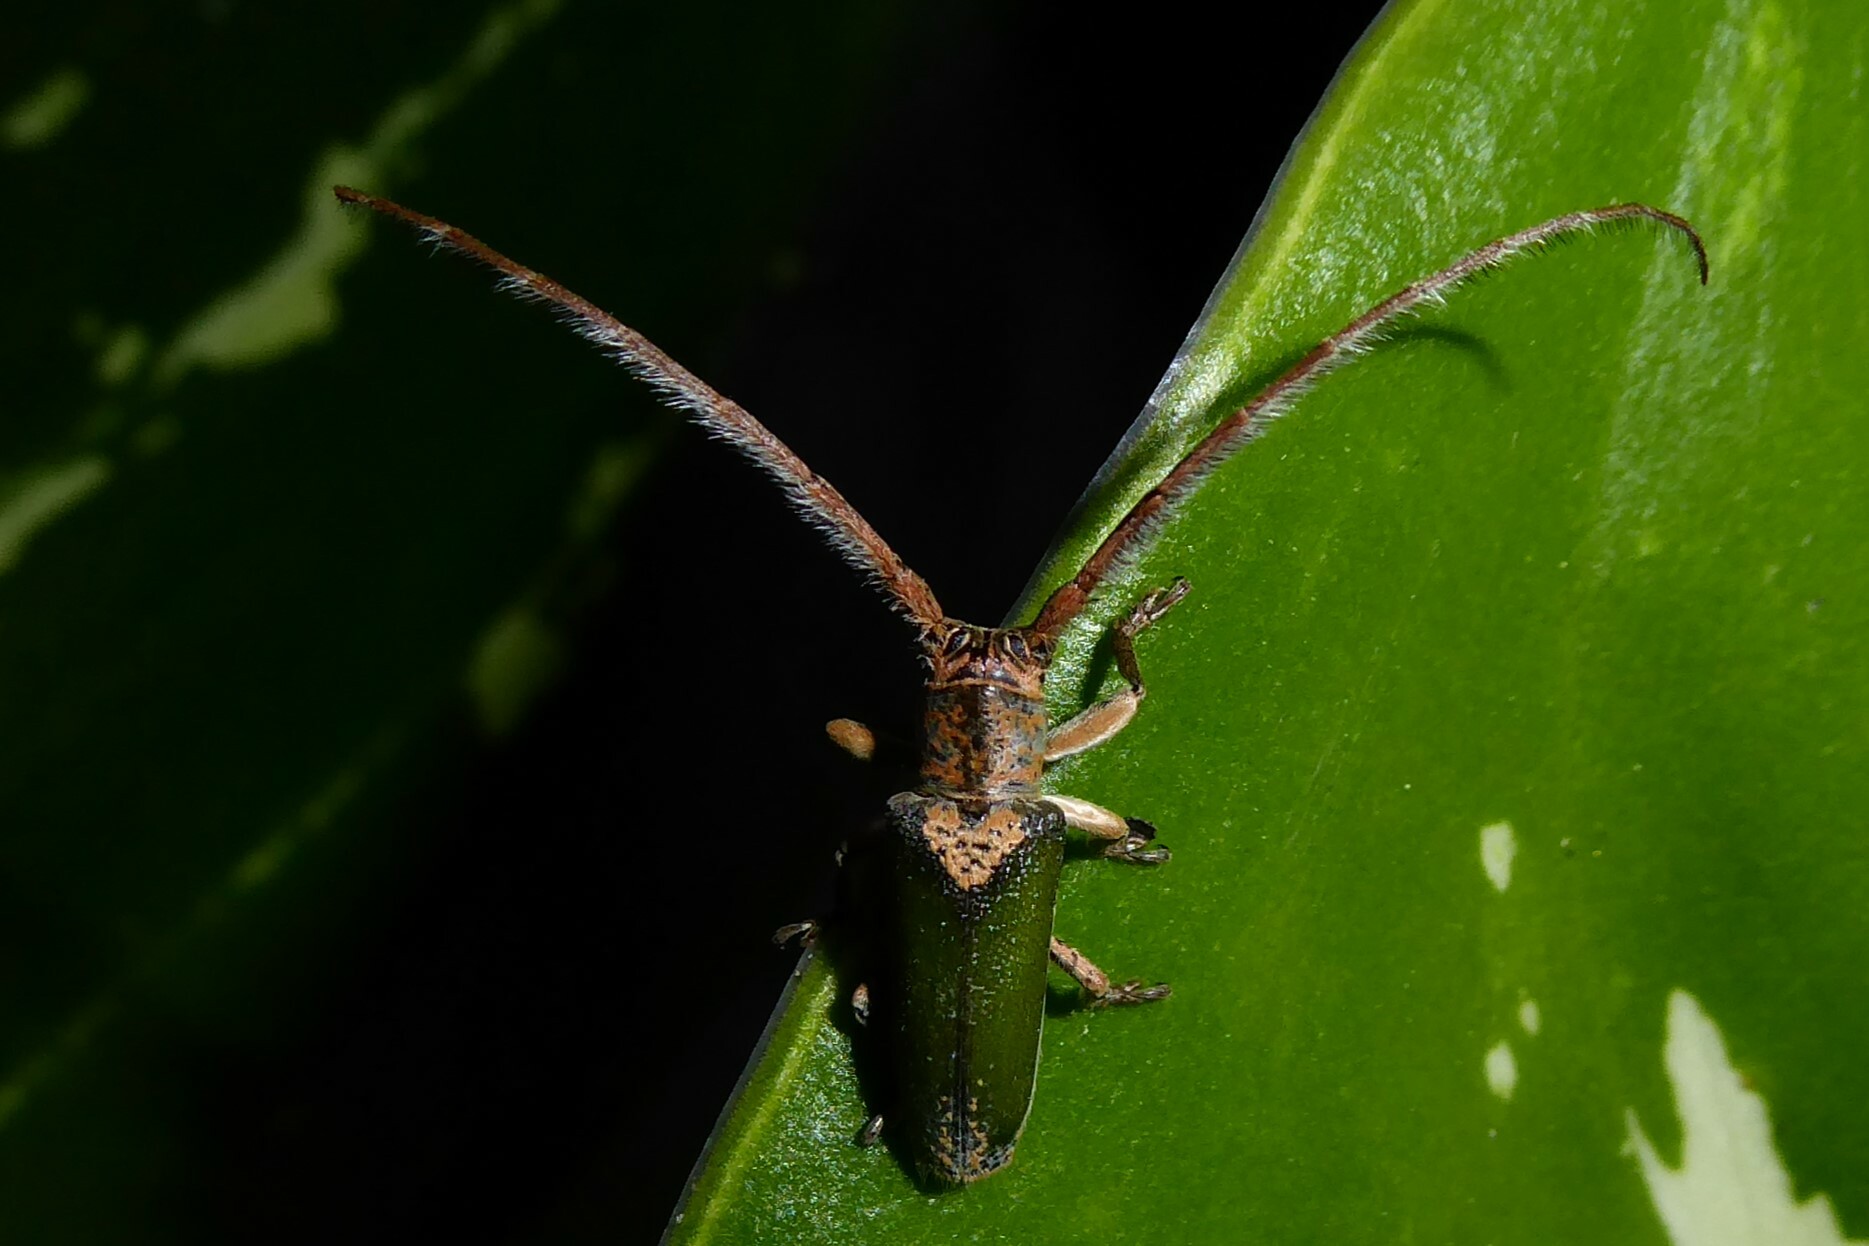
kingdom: Animalia
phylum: Arthropoda
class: Insecta
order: Coleoptera
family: Cerambycidae
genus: Rhytiphora
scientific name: Rhytiphora nigrovirens
